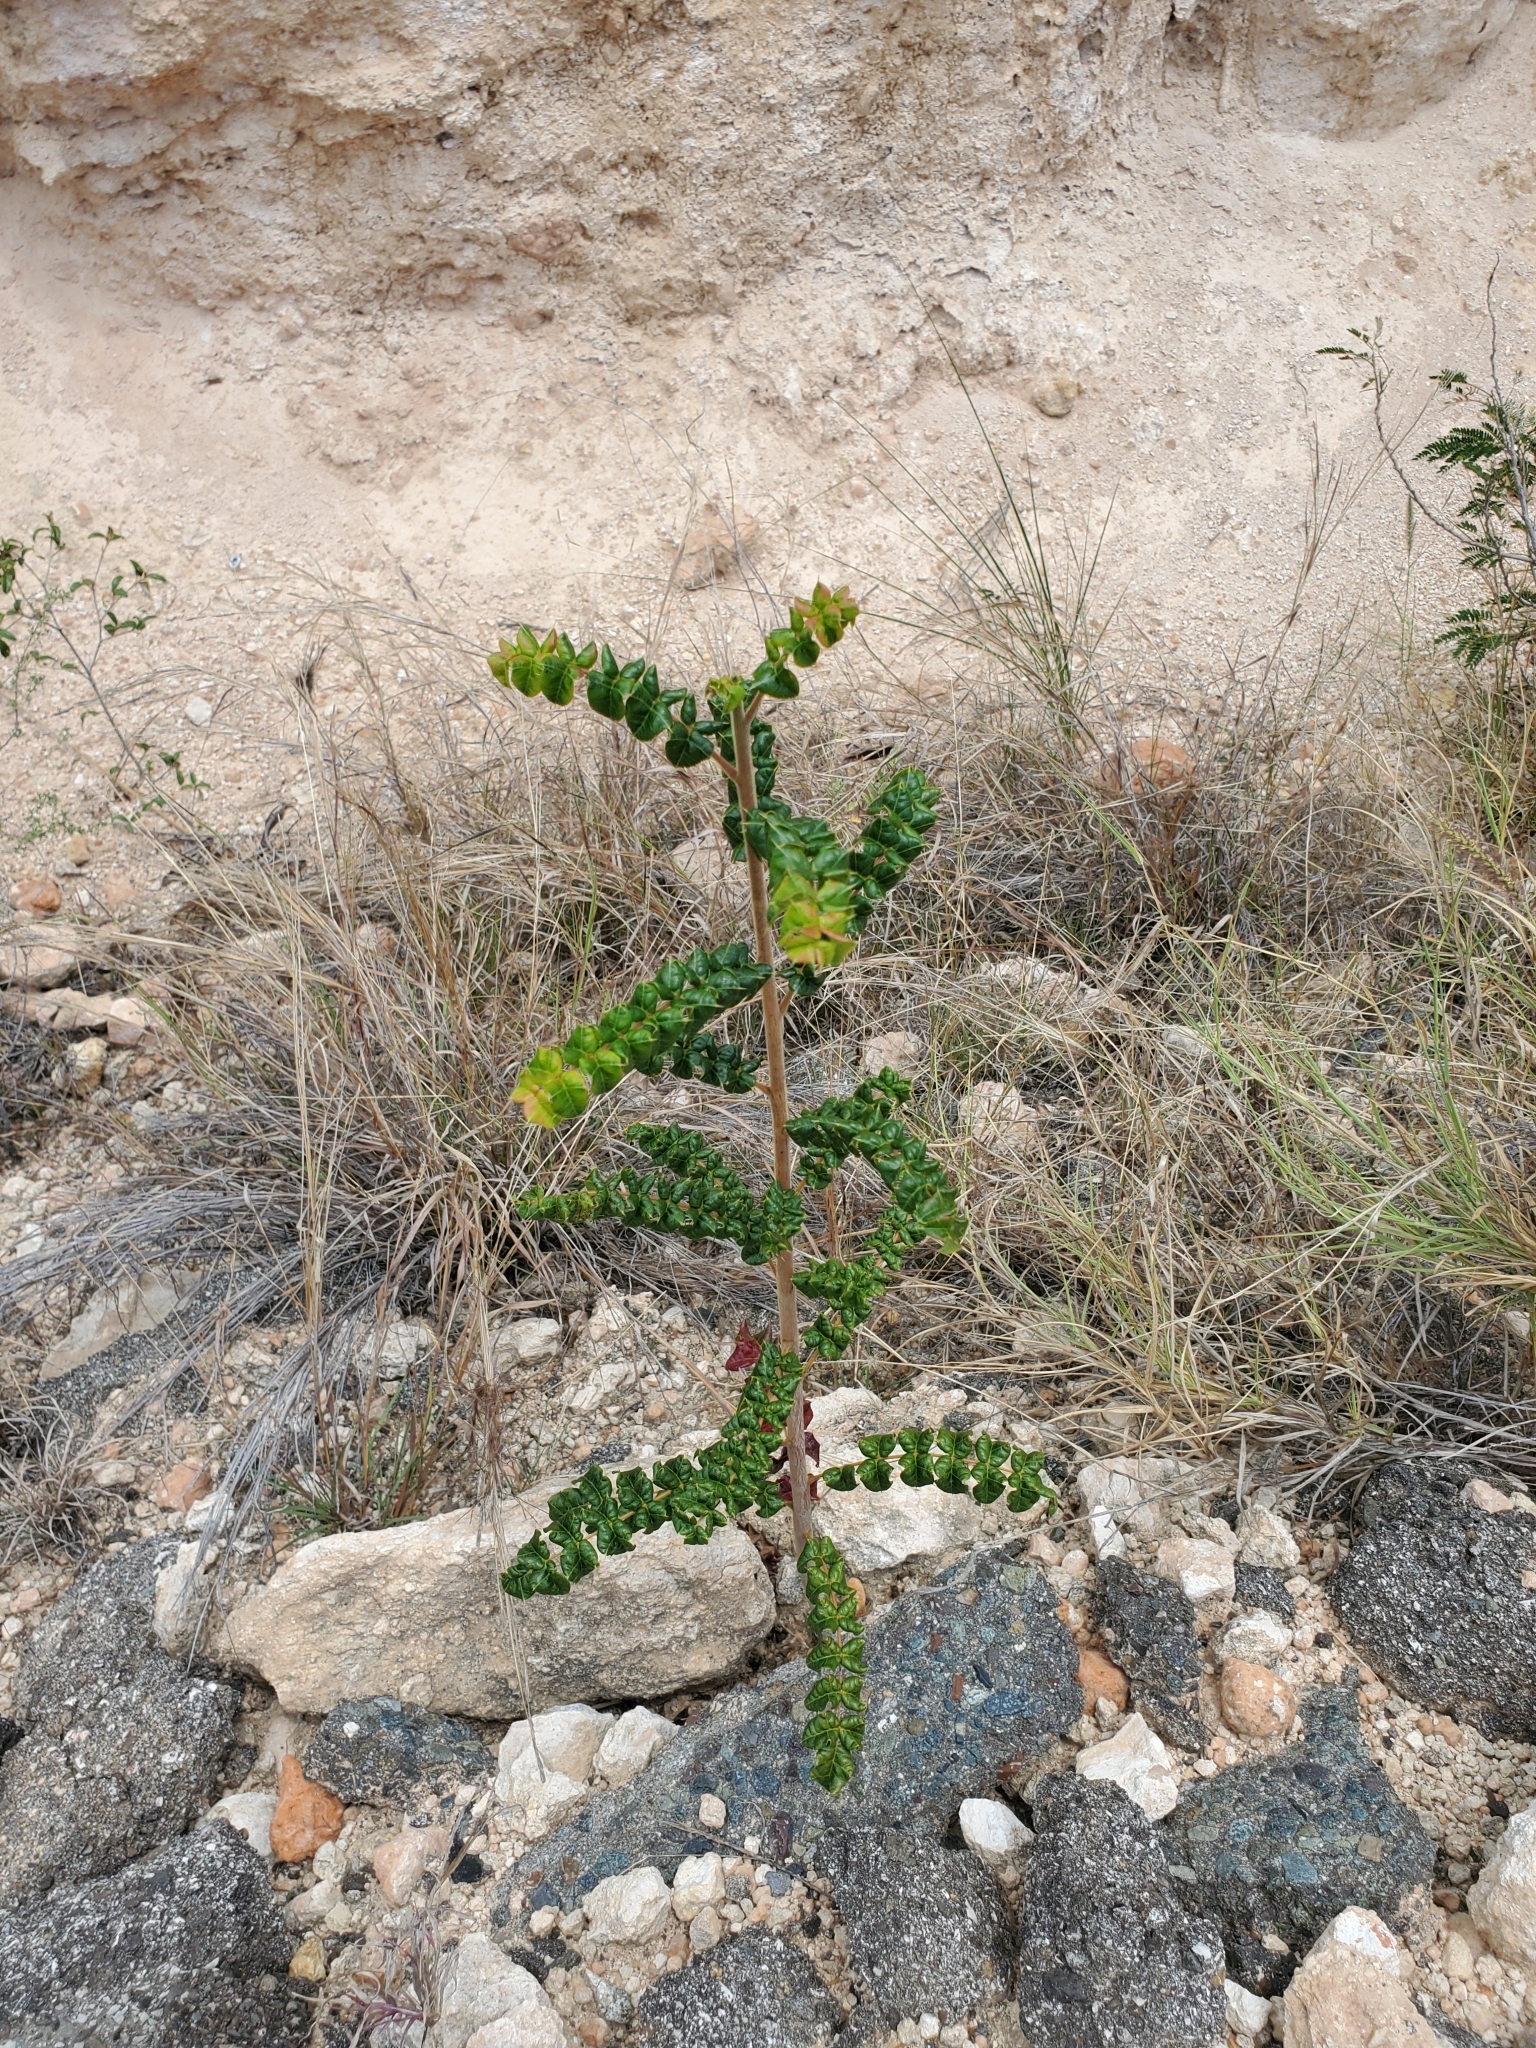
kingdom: Plantae
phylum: Tracheophyta
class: Magnoliopsida
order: Sapindales
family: Anacardiaceae
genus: Comocladia
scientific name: Comocladia dodonaea
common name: Poison ash
